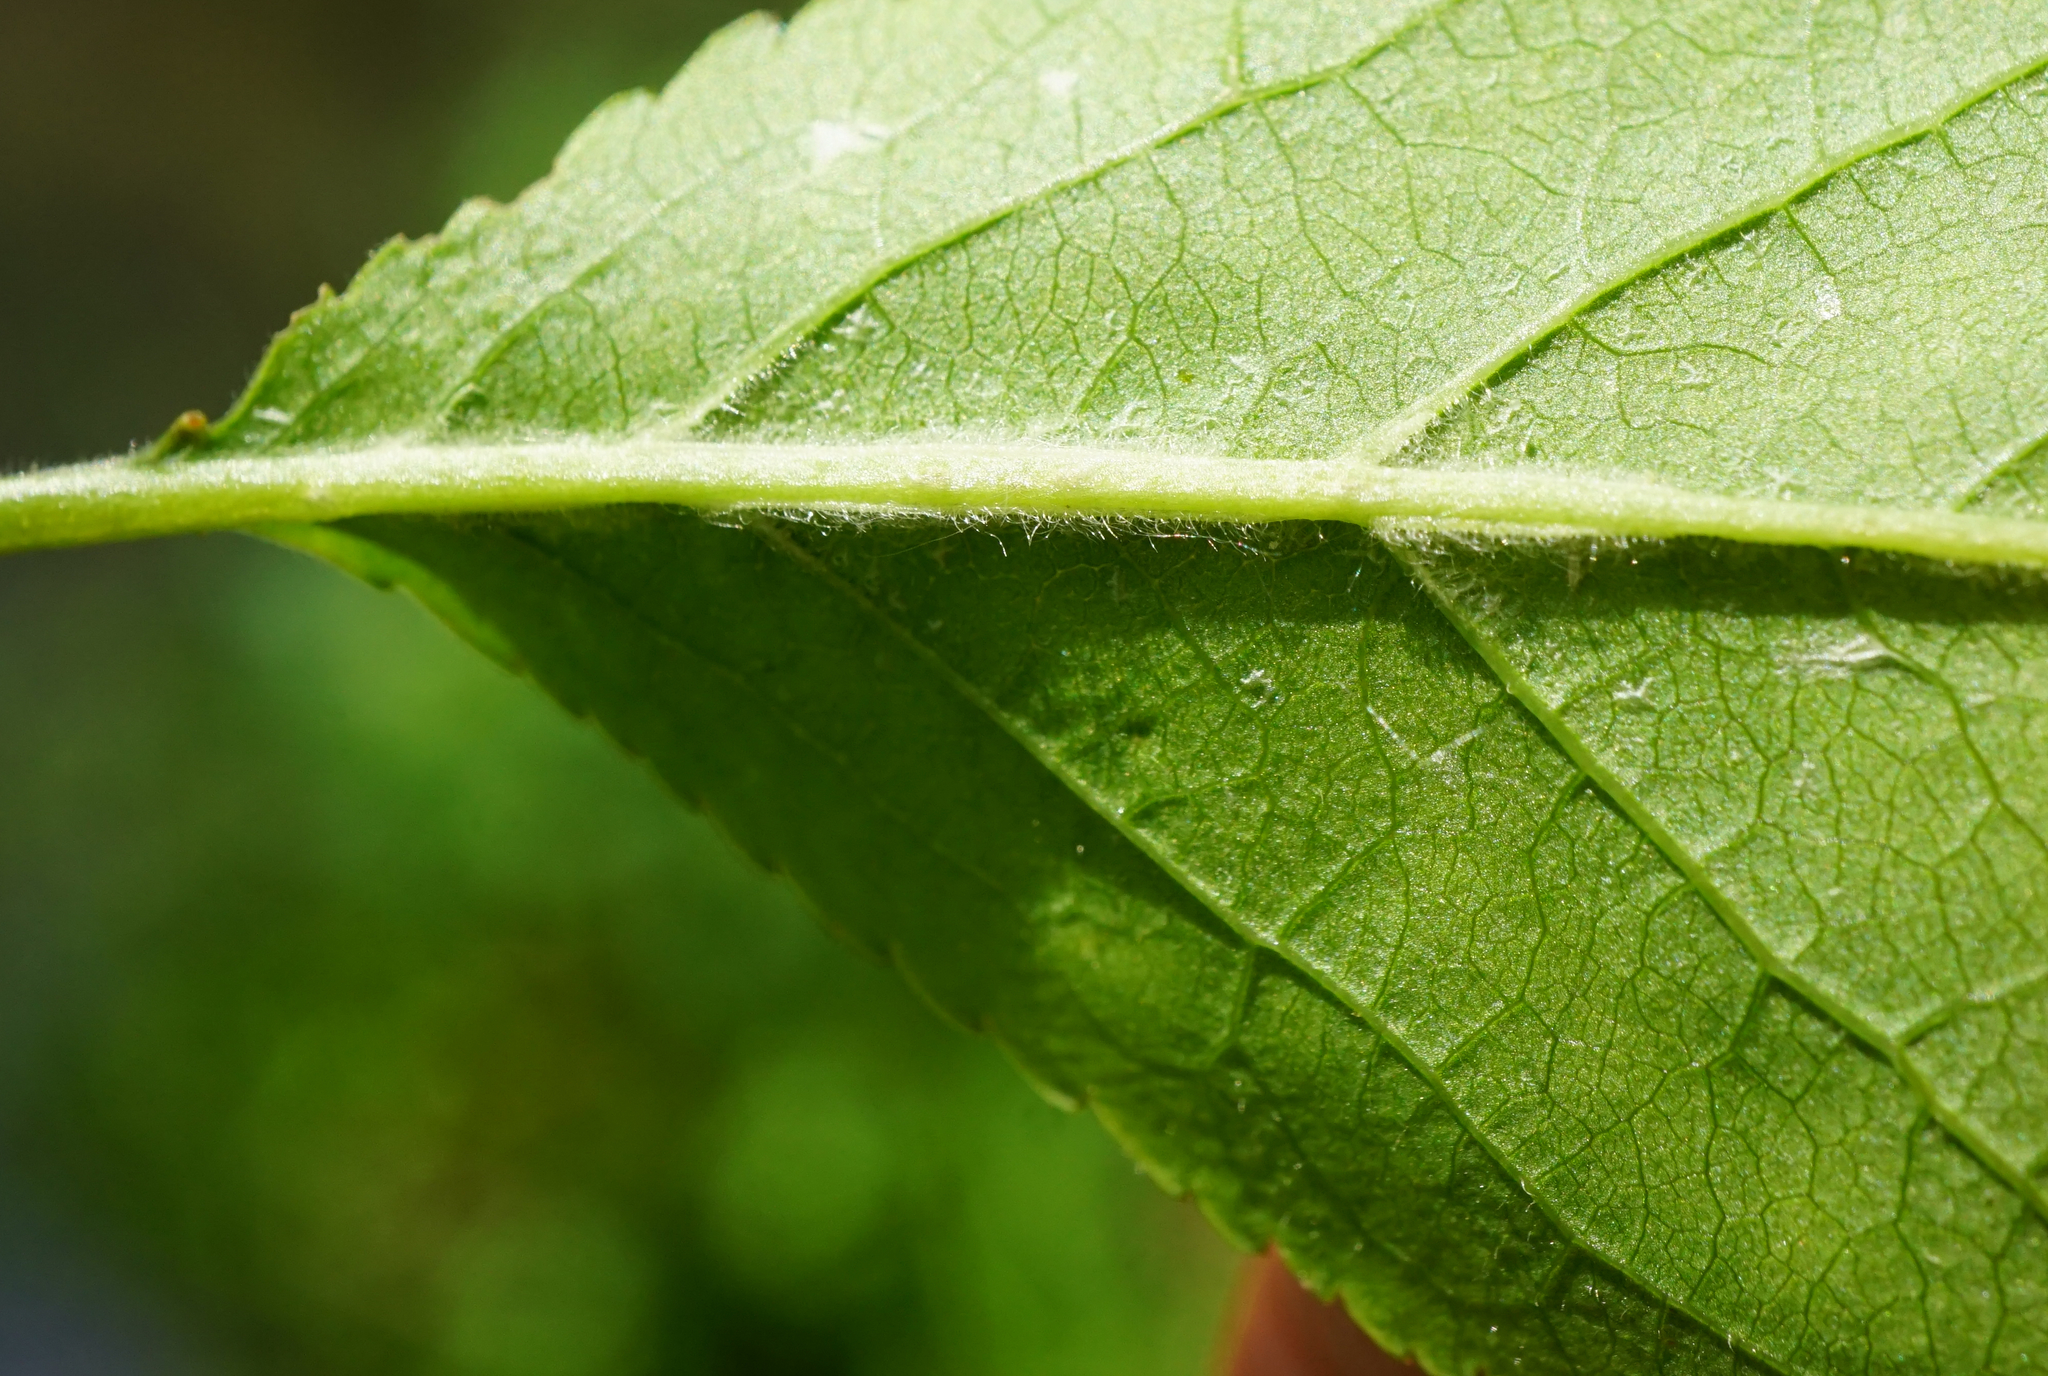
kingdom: Plantae
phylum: Tracheophyta
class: Magnoliopsida
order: Rosales
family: Rosaceae
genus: Prunus
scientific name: Prunus cerasus
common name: Morello cherry
